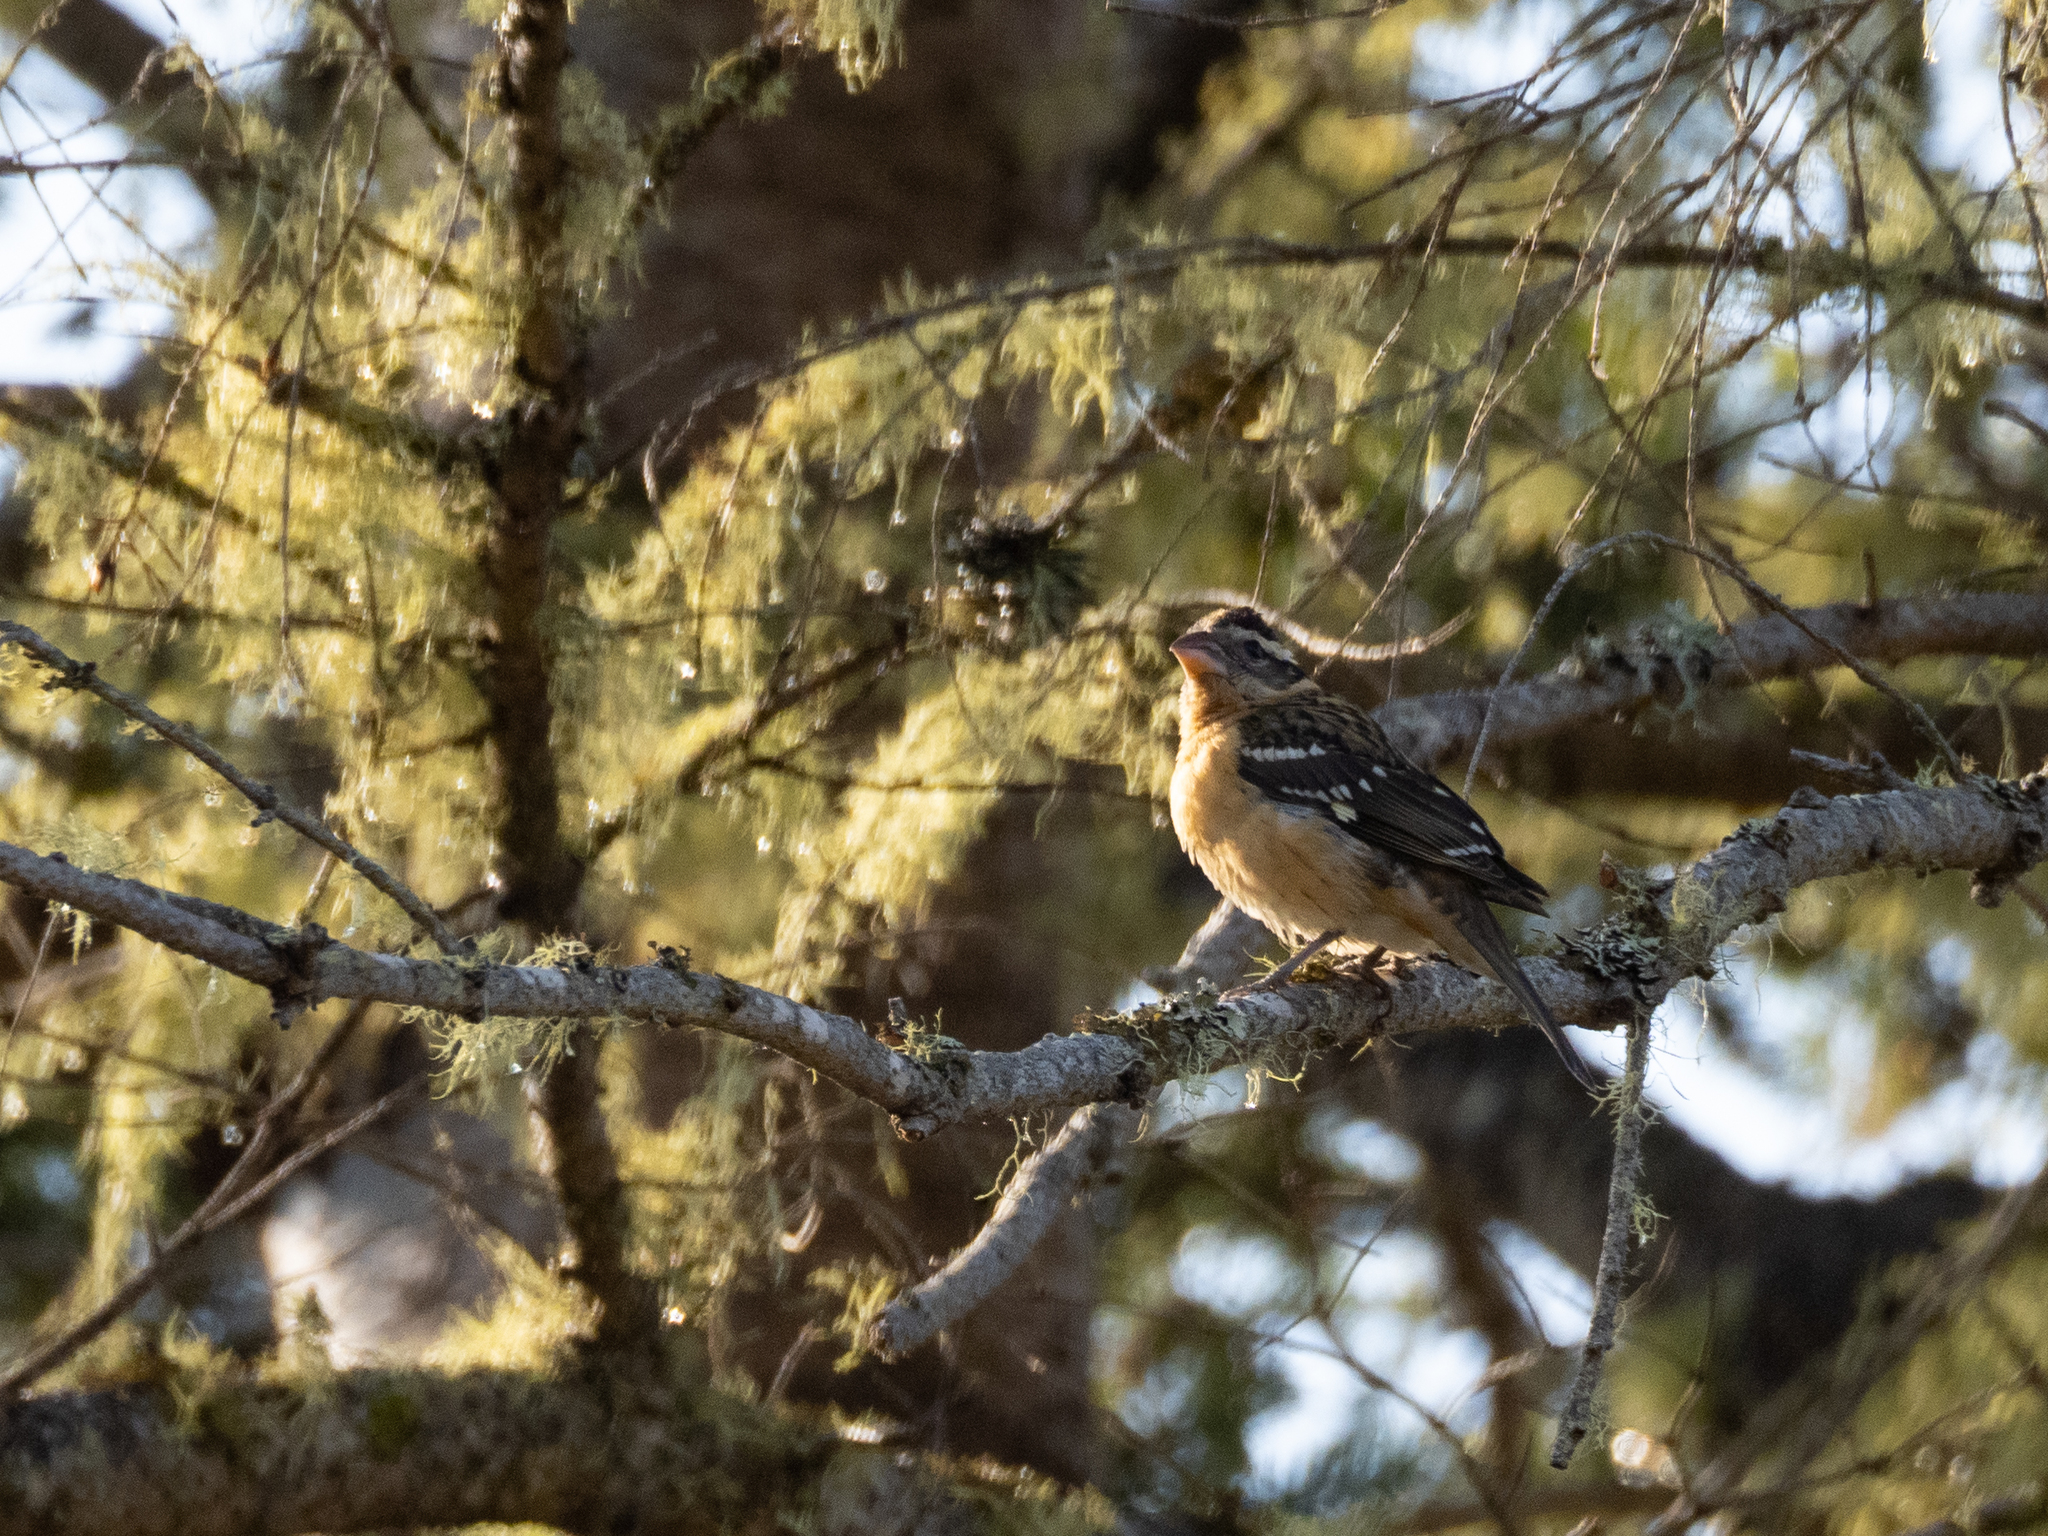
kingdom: Animalia
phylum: Chordata
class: Aves
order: Passeriformes
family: Cardinalidae
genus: Pheucticus
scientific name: Pheucticus melanocephalus
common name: Black-headed grosbeak
